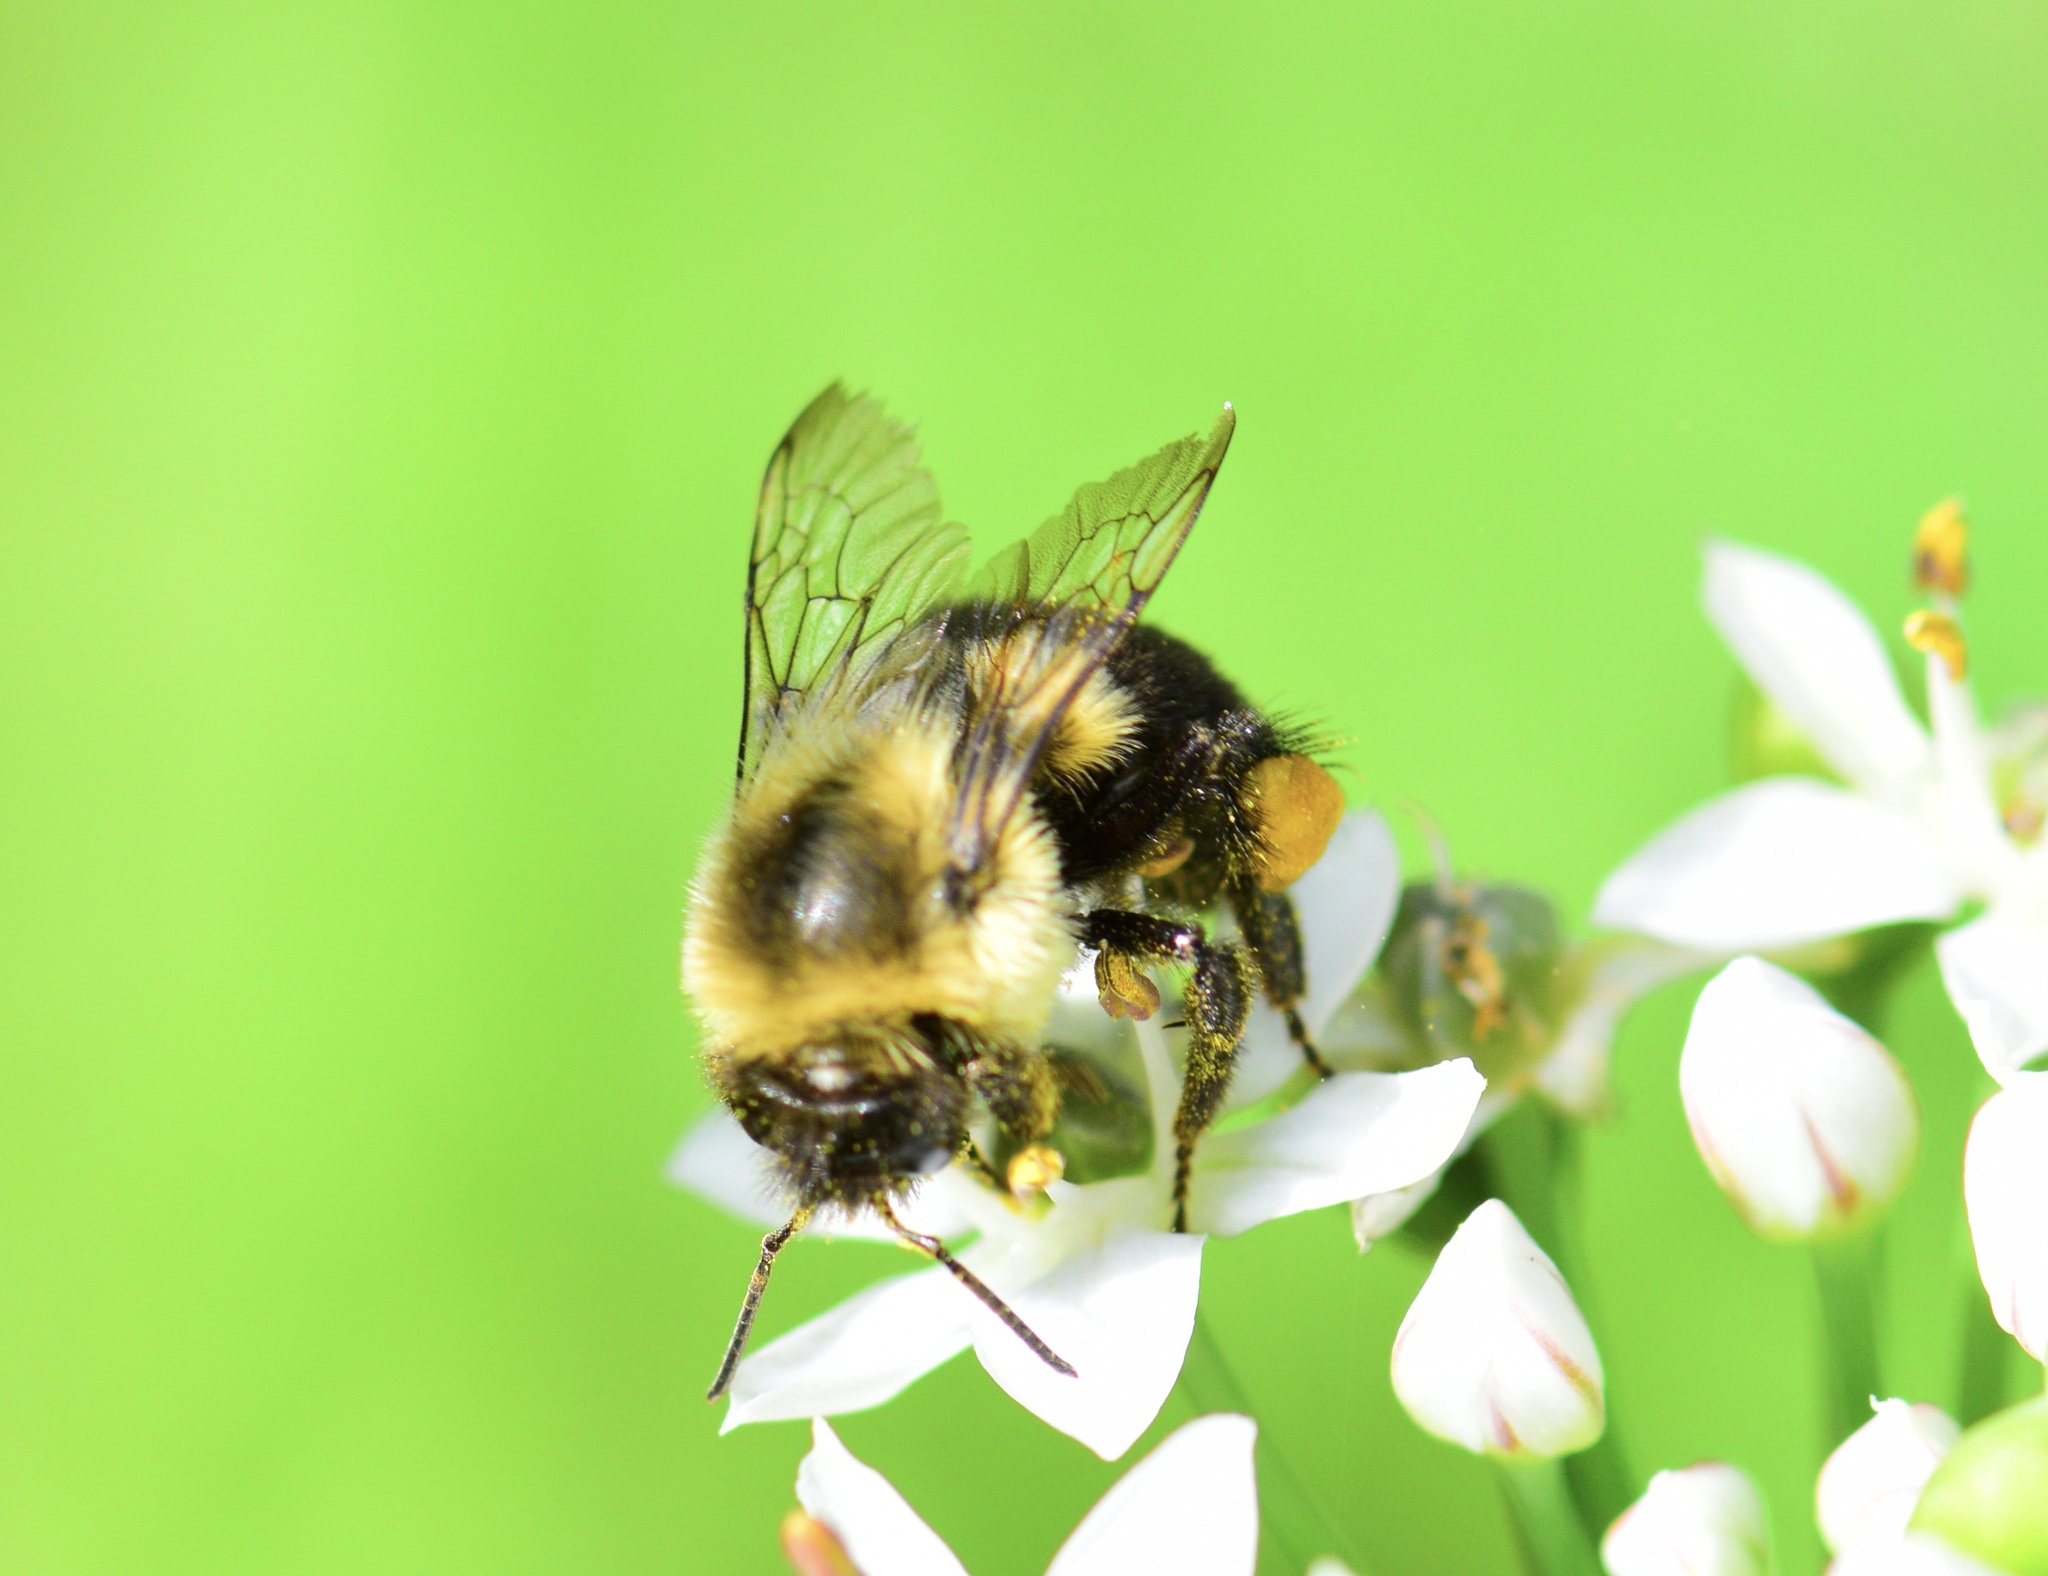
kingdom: Animalia
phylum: Arthropoda
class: Insecta
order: Hymenoptera
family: Apidae
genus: Bombus
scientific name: Bombus impatiens
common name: Common eastern bumble bee
